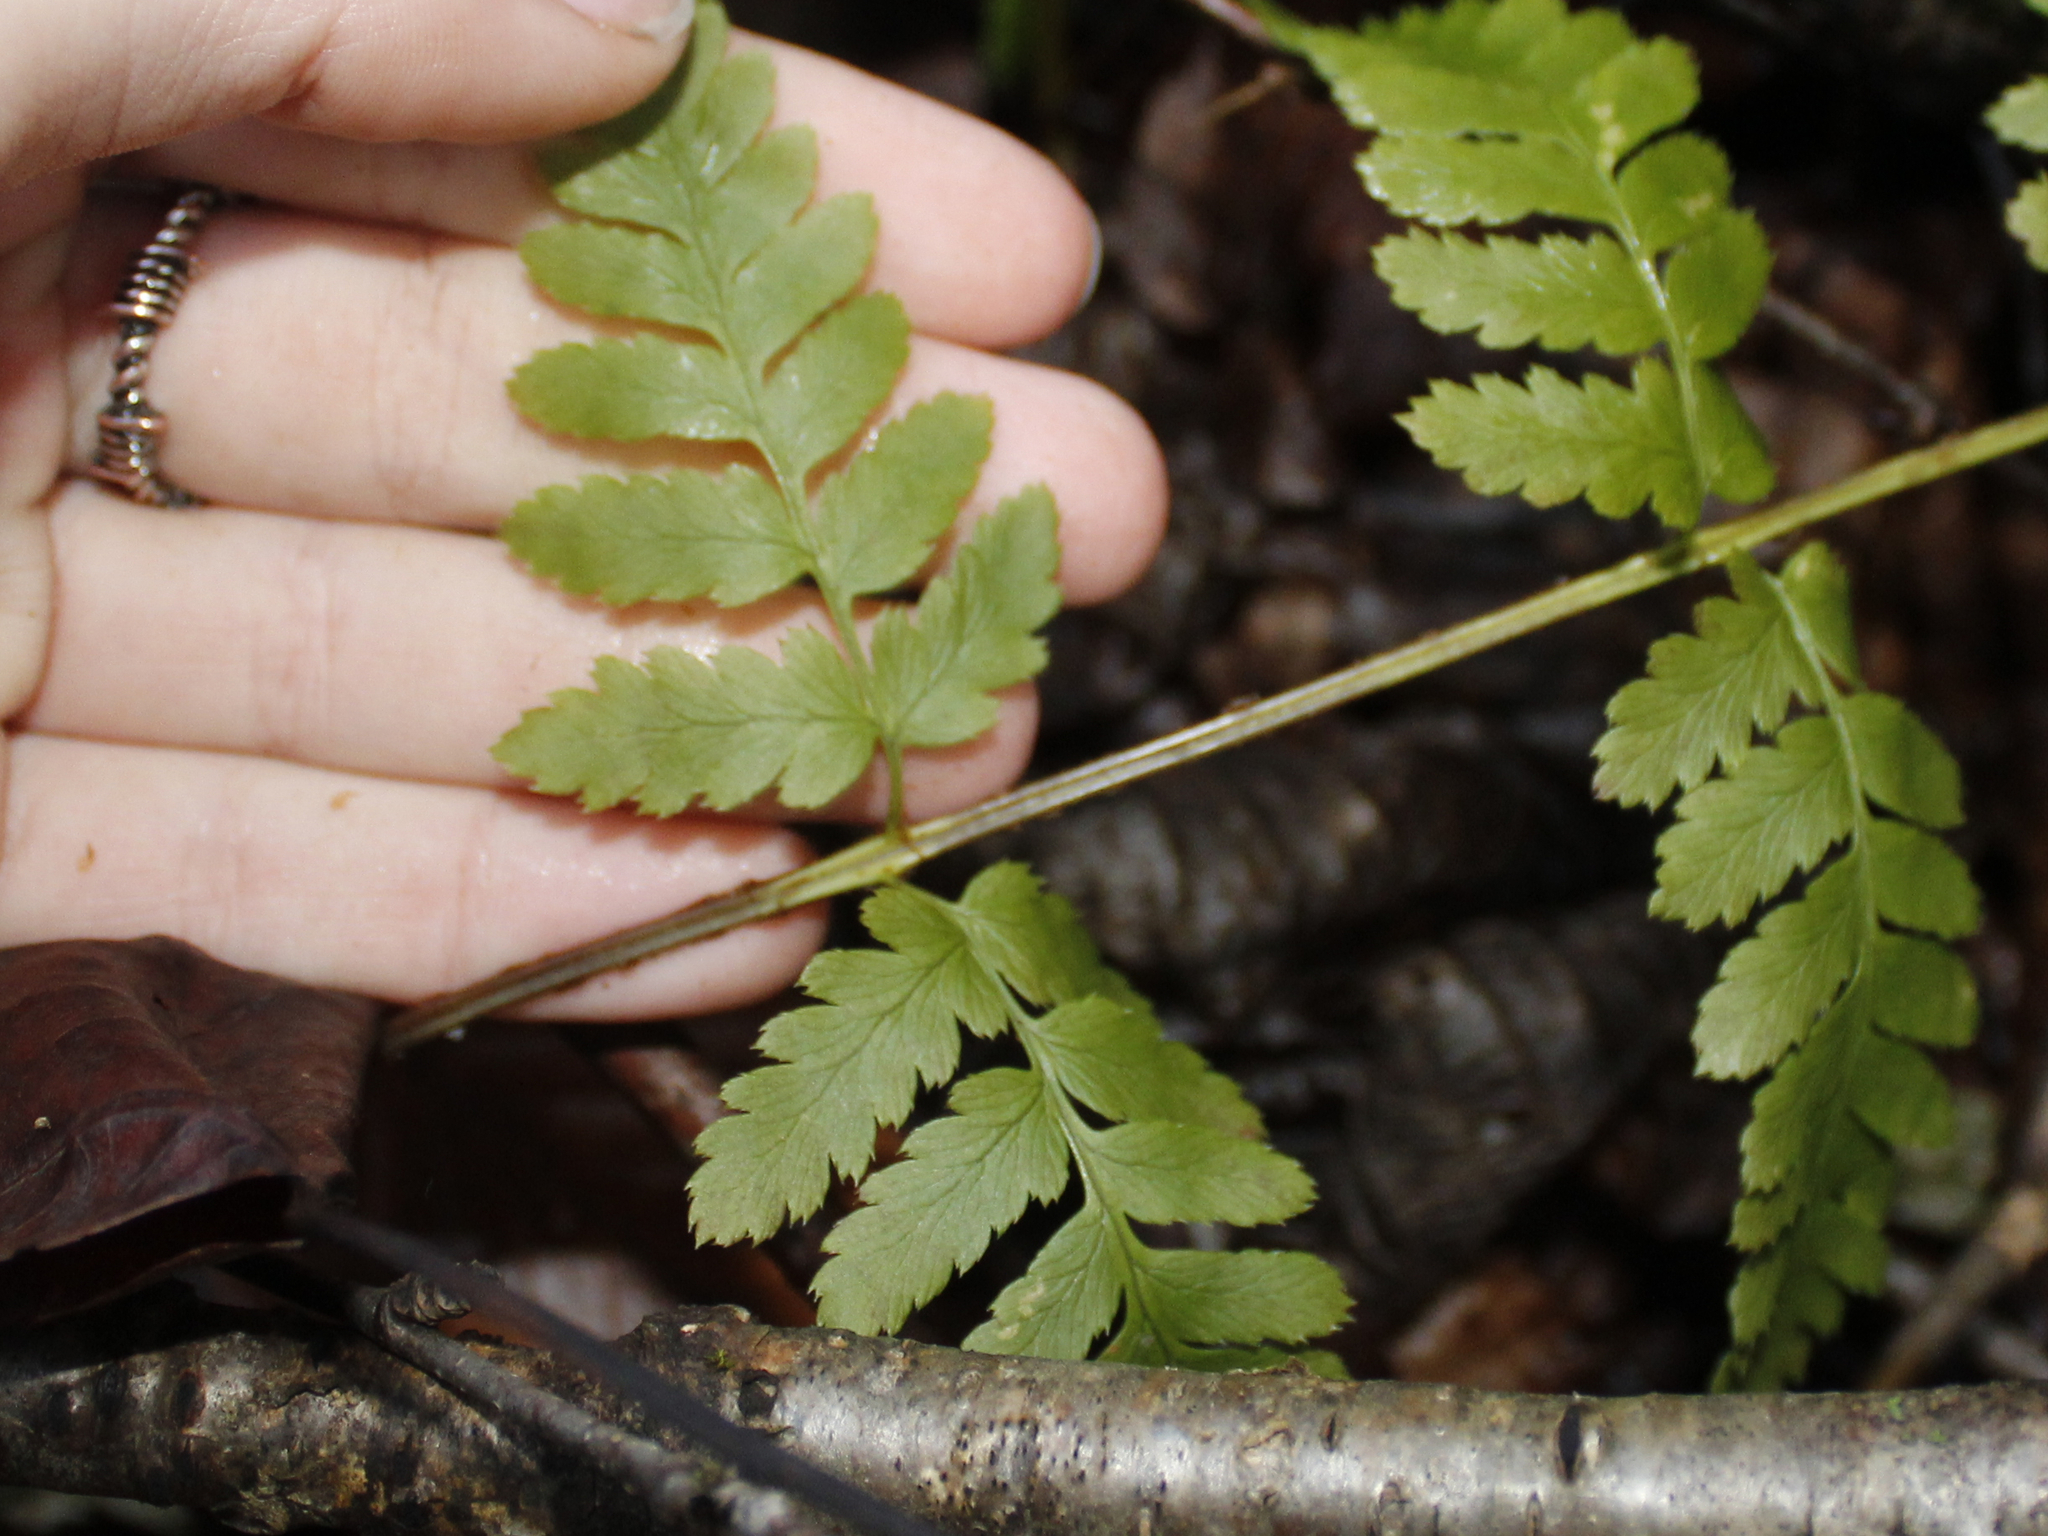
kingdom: Plantae
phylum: Tracheophyta
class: Polypodiopsida
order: Polypodiales
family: Dryopteridaceae
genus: Dryopteris
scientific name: Dryopteris boottii
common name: Boott's fern
